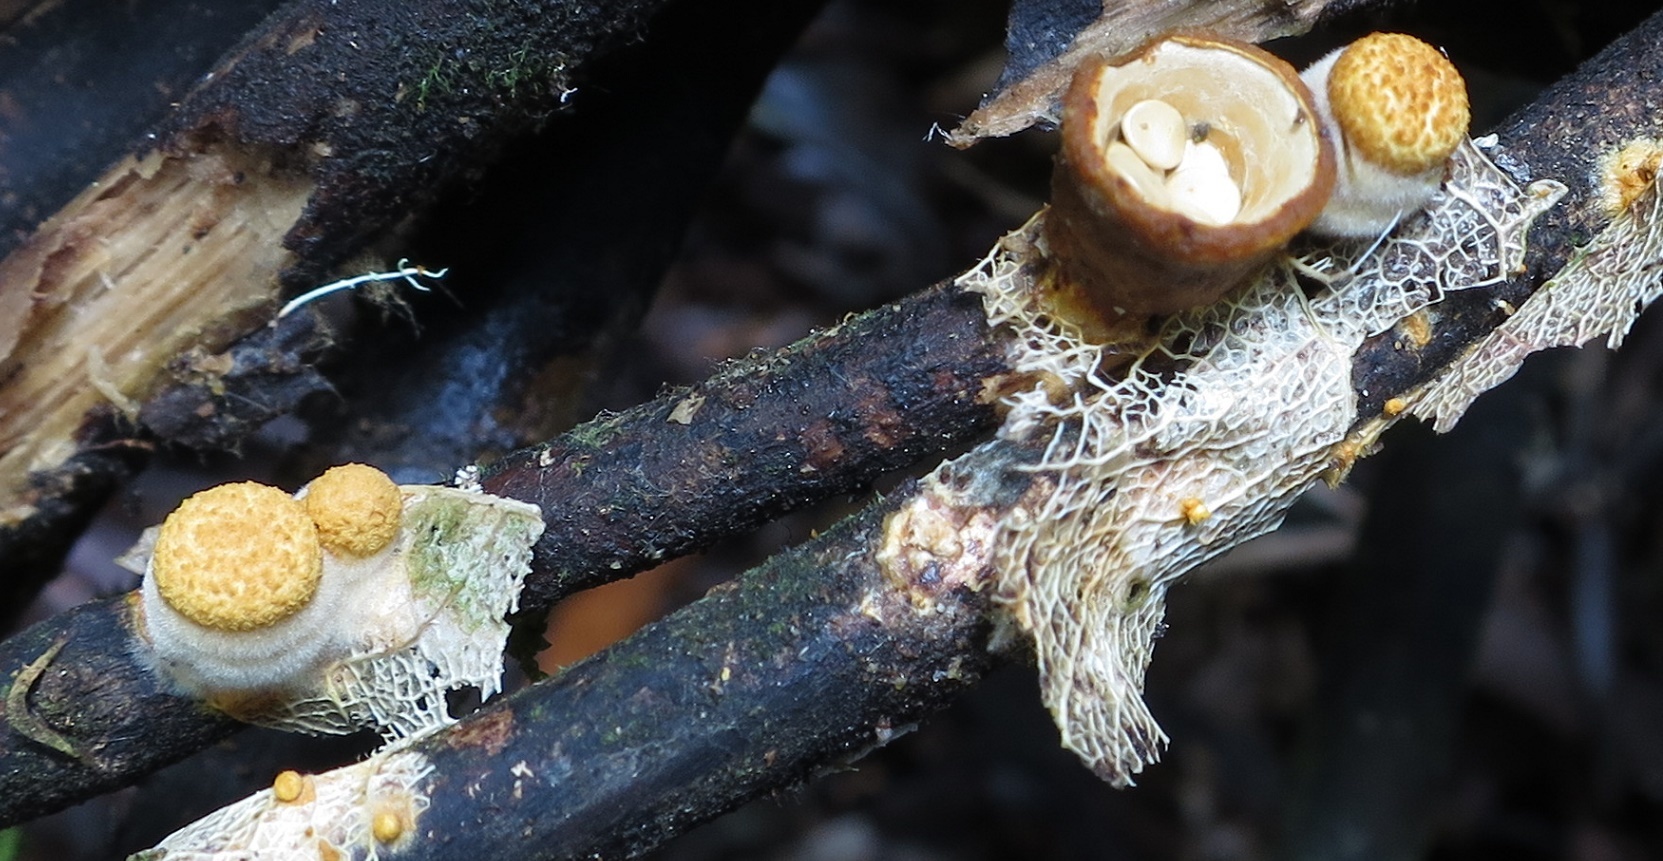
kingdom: Fungi
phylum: Basidiomycota
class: Agaricomycetes
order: Agaricales
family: Nidulariaceae
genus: Crucibulum
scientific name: Crucibulum simile
